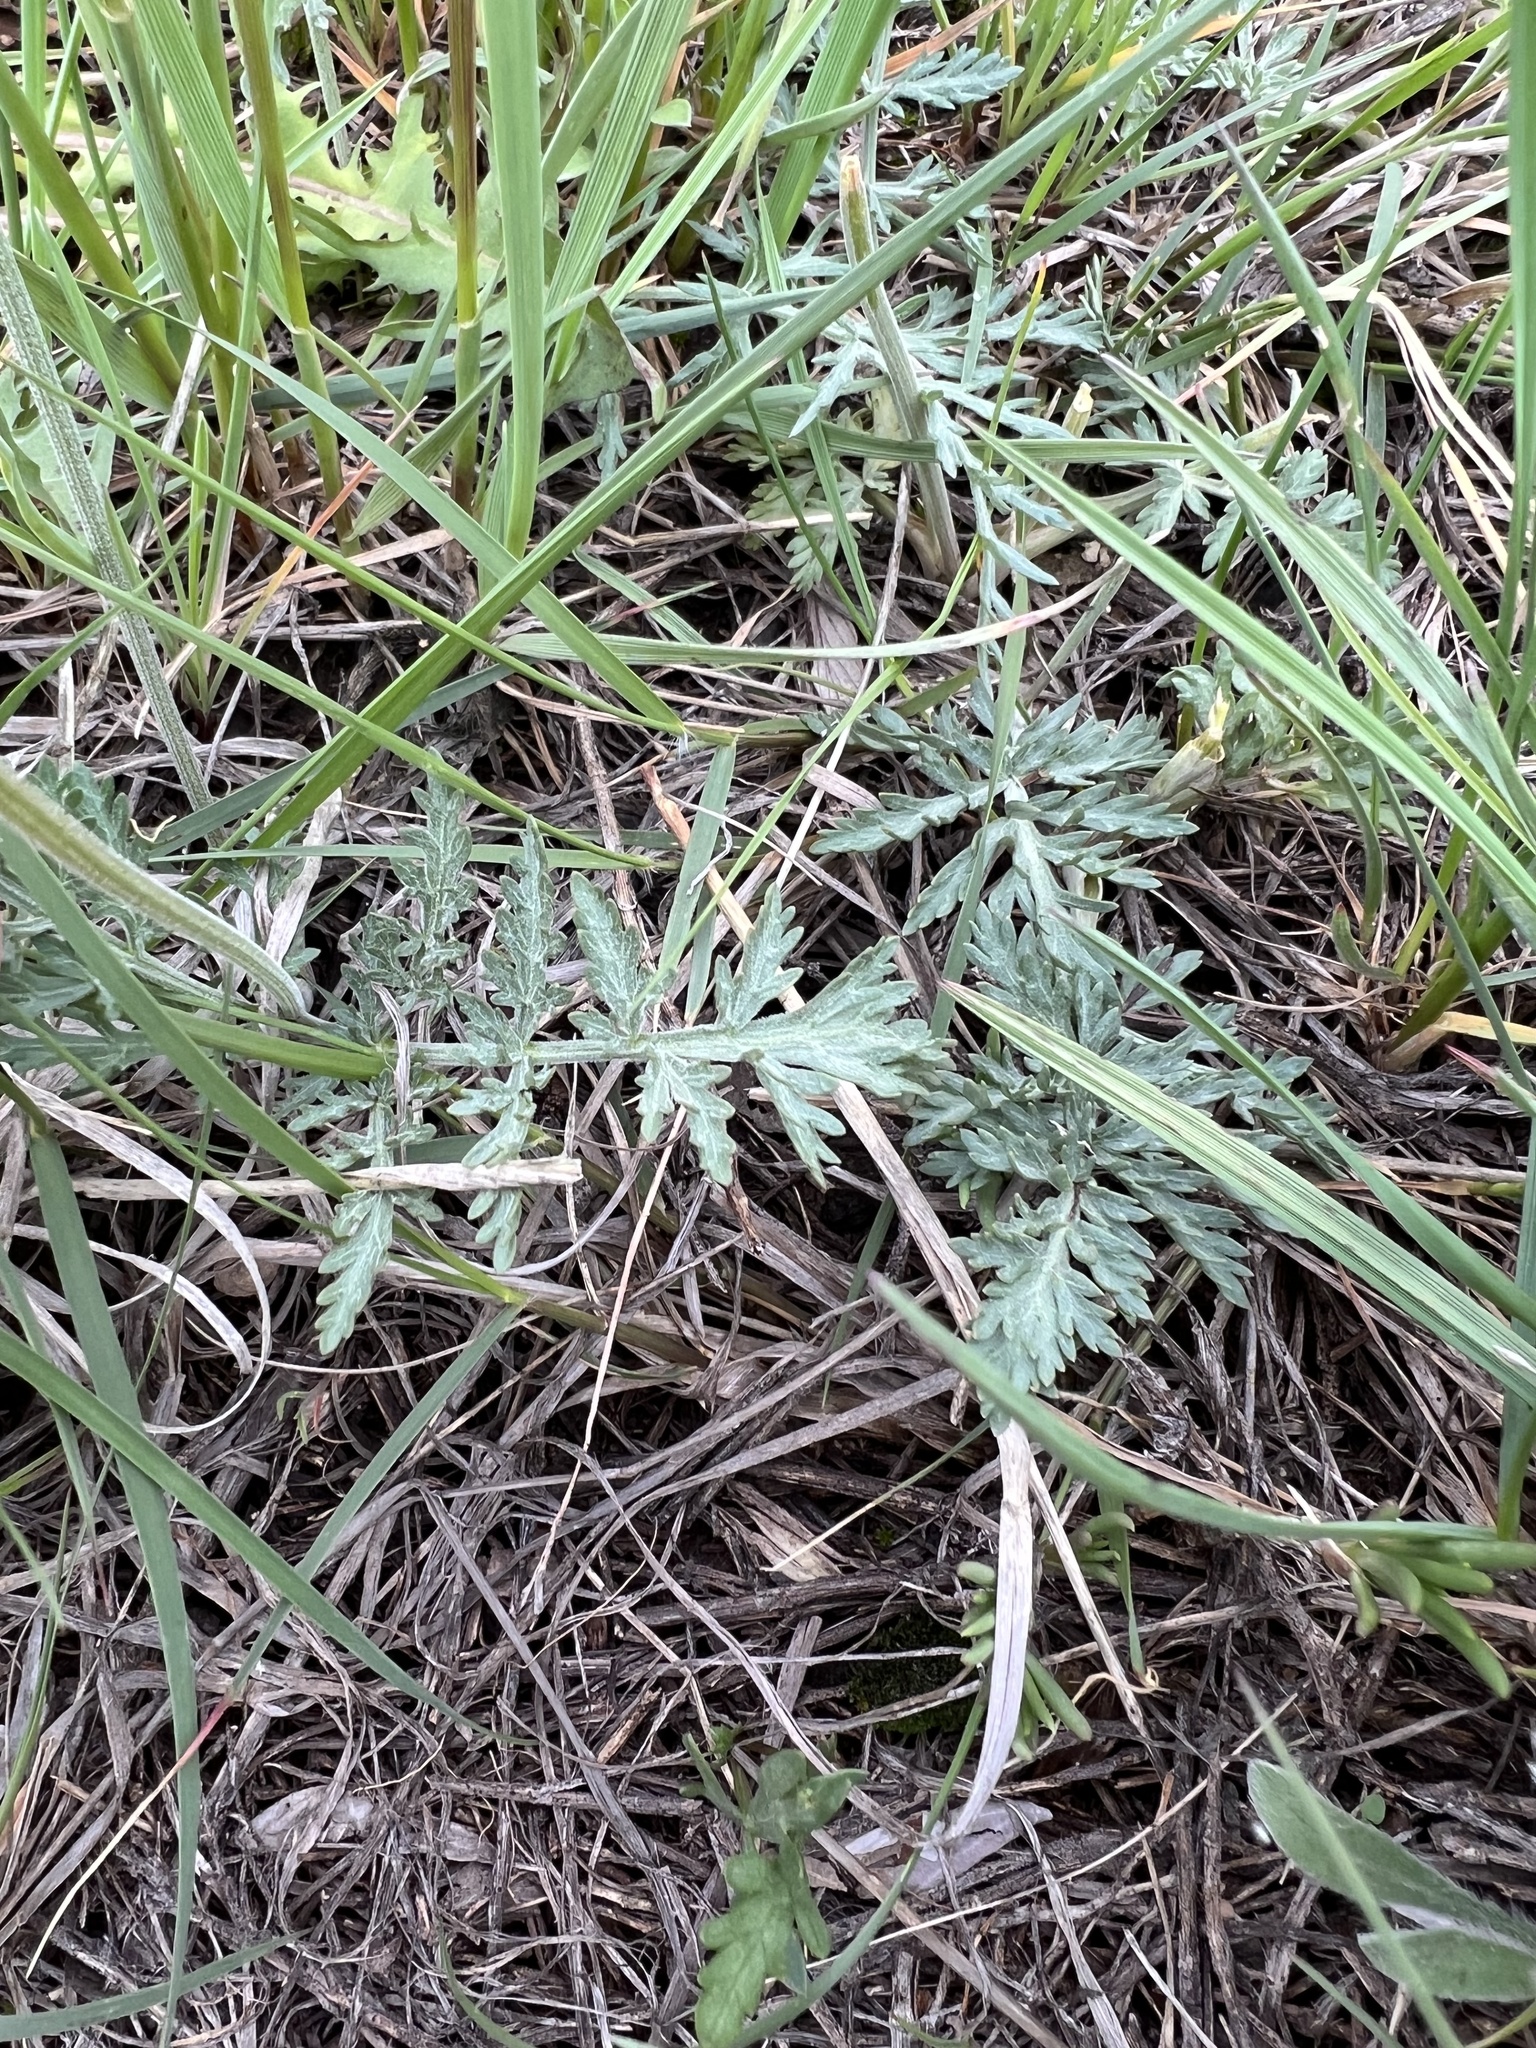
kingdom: Plantae
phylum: Tracheophyta
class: Magnoliopsida
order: Apiales
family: Apiaceae
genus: Lomatium
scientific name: Lomatium orientale
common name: Eastern cous
